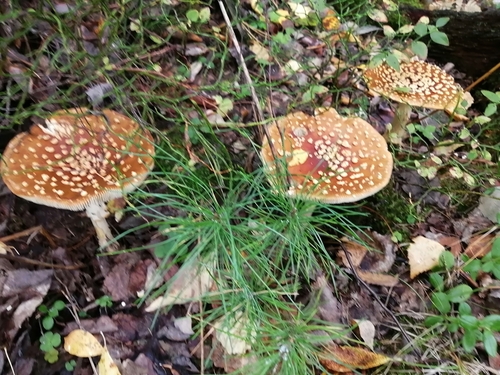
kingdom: Fungi
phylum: Basidiomycota
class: Agaricomycetes
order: Agaricales
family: Amanitaceae
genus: Amanita
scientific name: Amanita regalis
